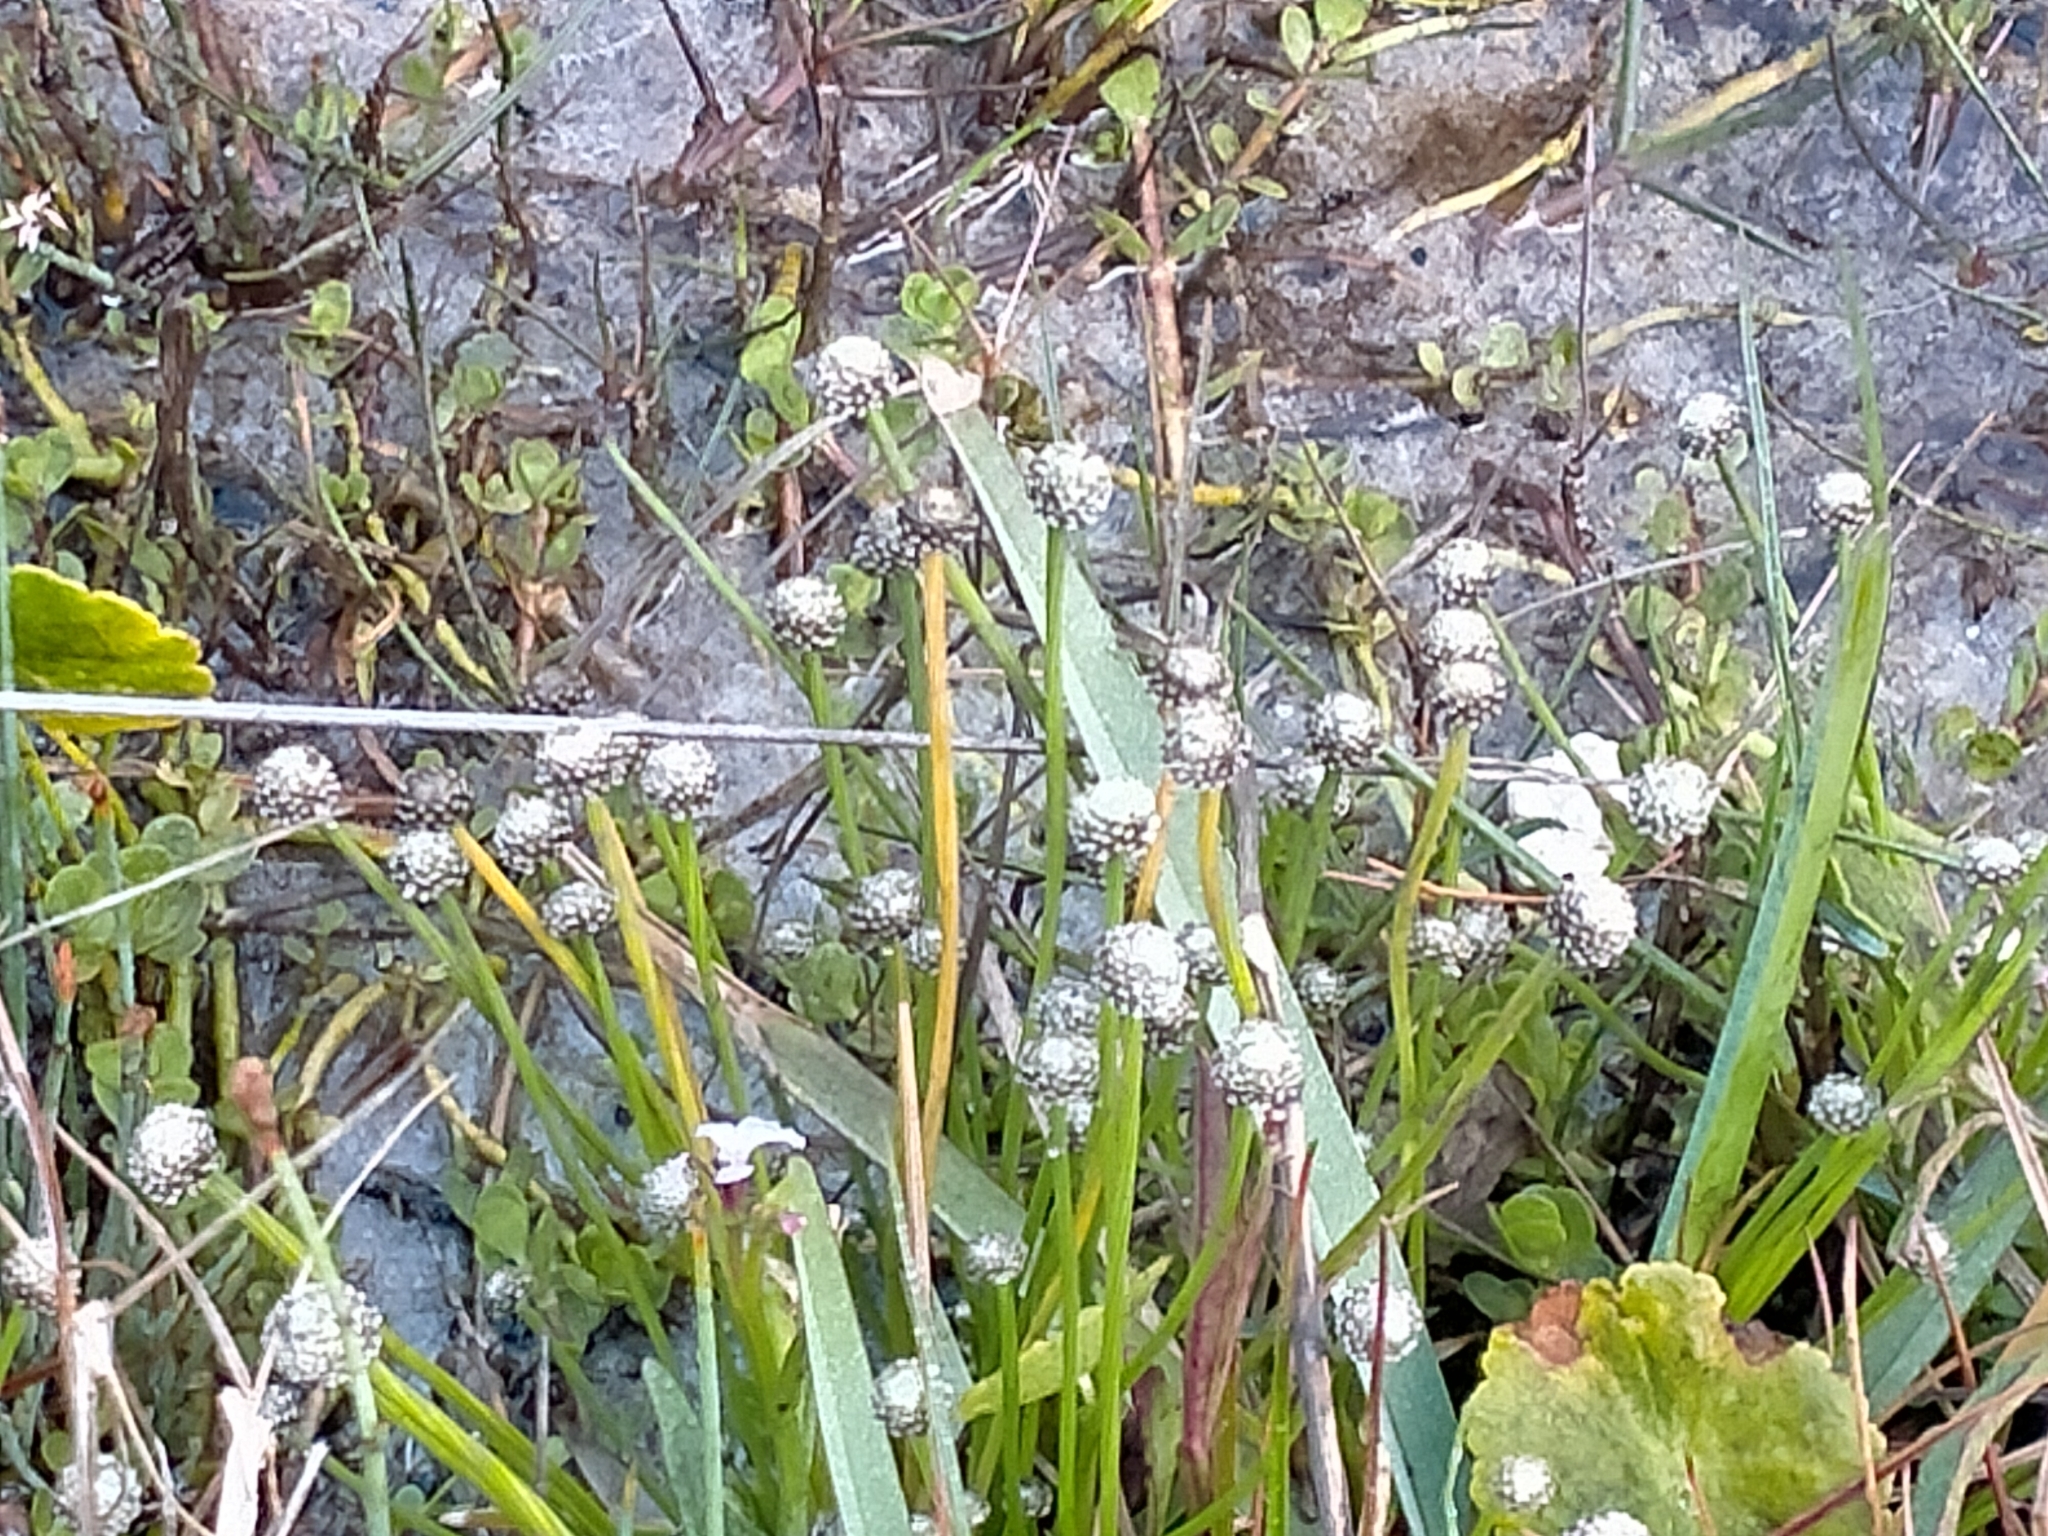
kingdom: Plantae
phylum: Tracheophyta
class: Liliopsida
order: Poales
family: Eriocaulaceae
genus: Eriocaulon
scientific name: Eriocaulon scariosum
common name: Rough pipewort
